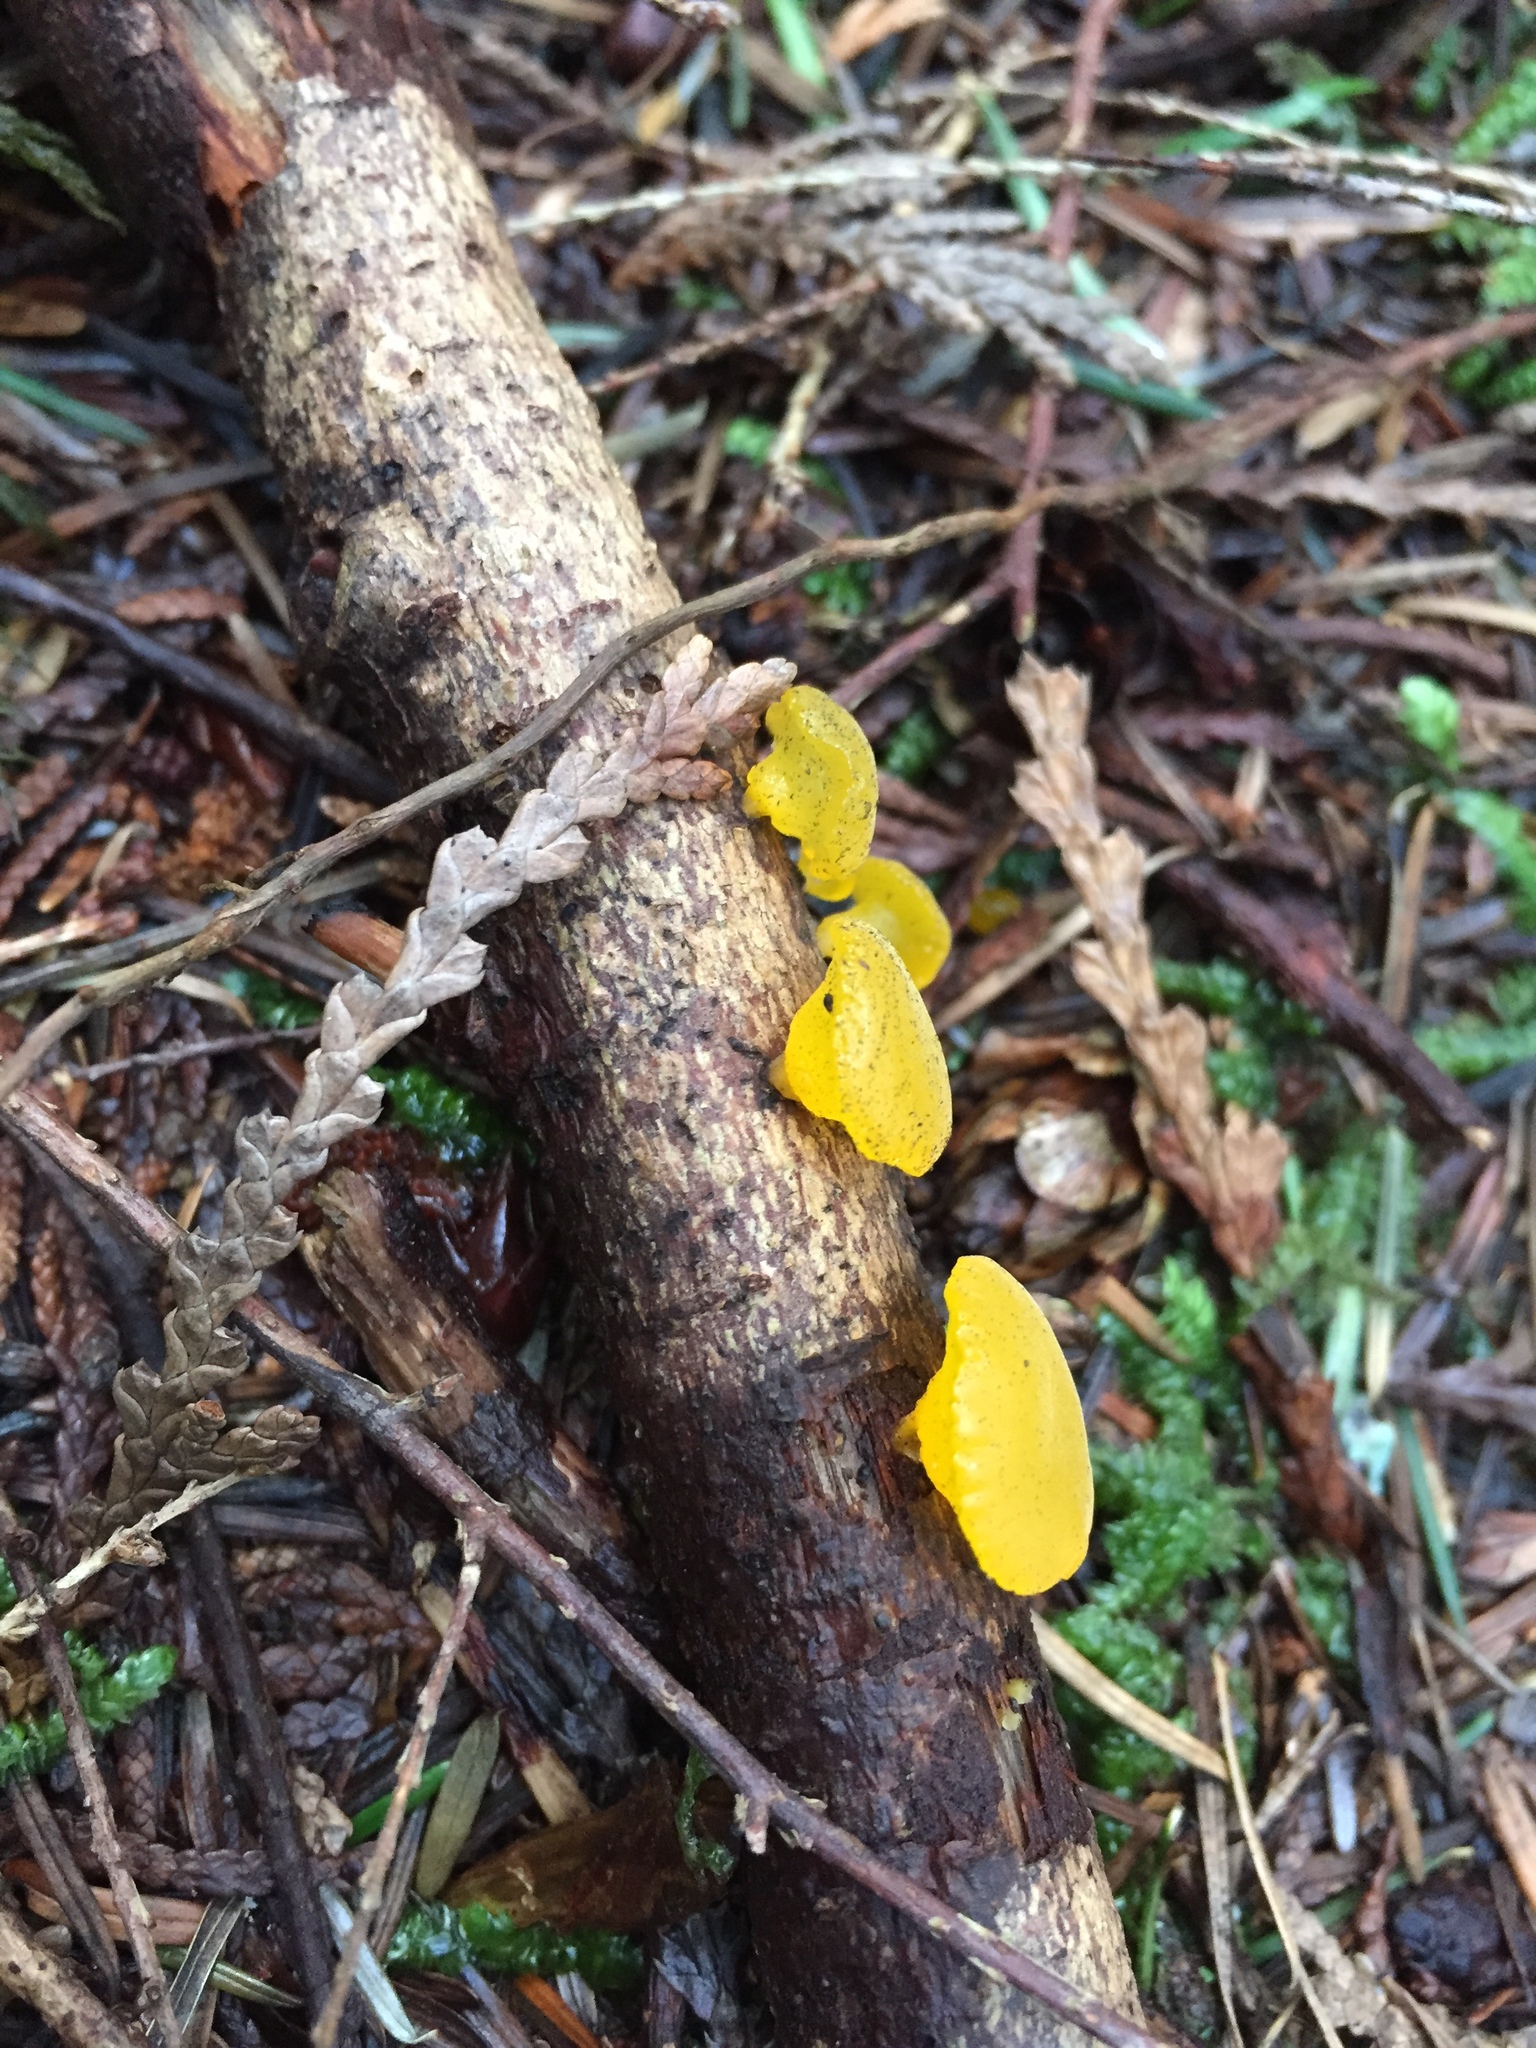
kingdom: Fungi
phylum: Basidiomycota
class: Dacrymycetes
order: Dacrymycetales
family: Dacrymycetaceae
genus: Guepiniopsis
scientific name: Guepiniopsis alpina
